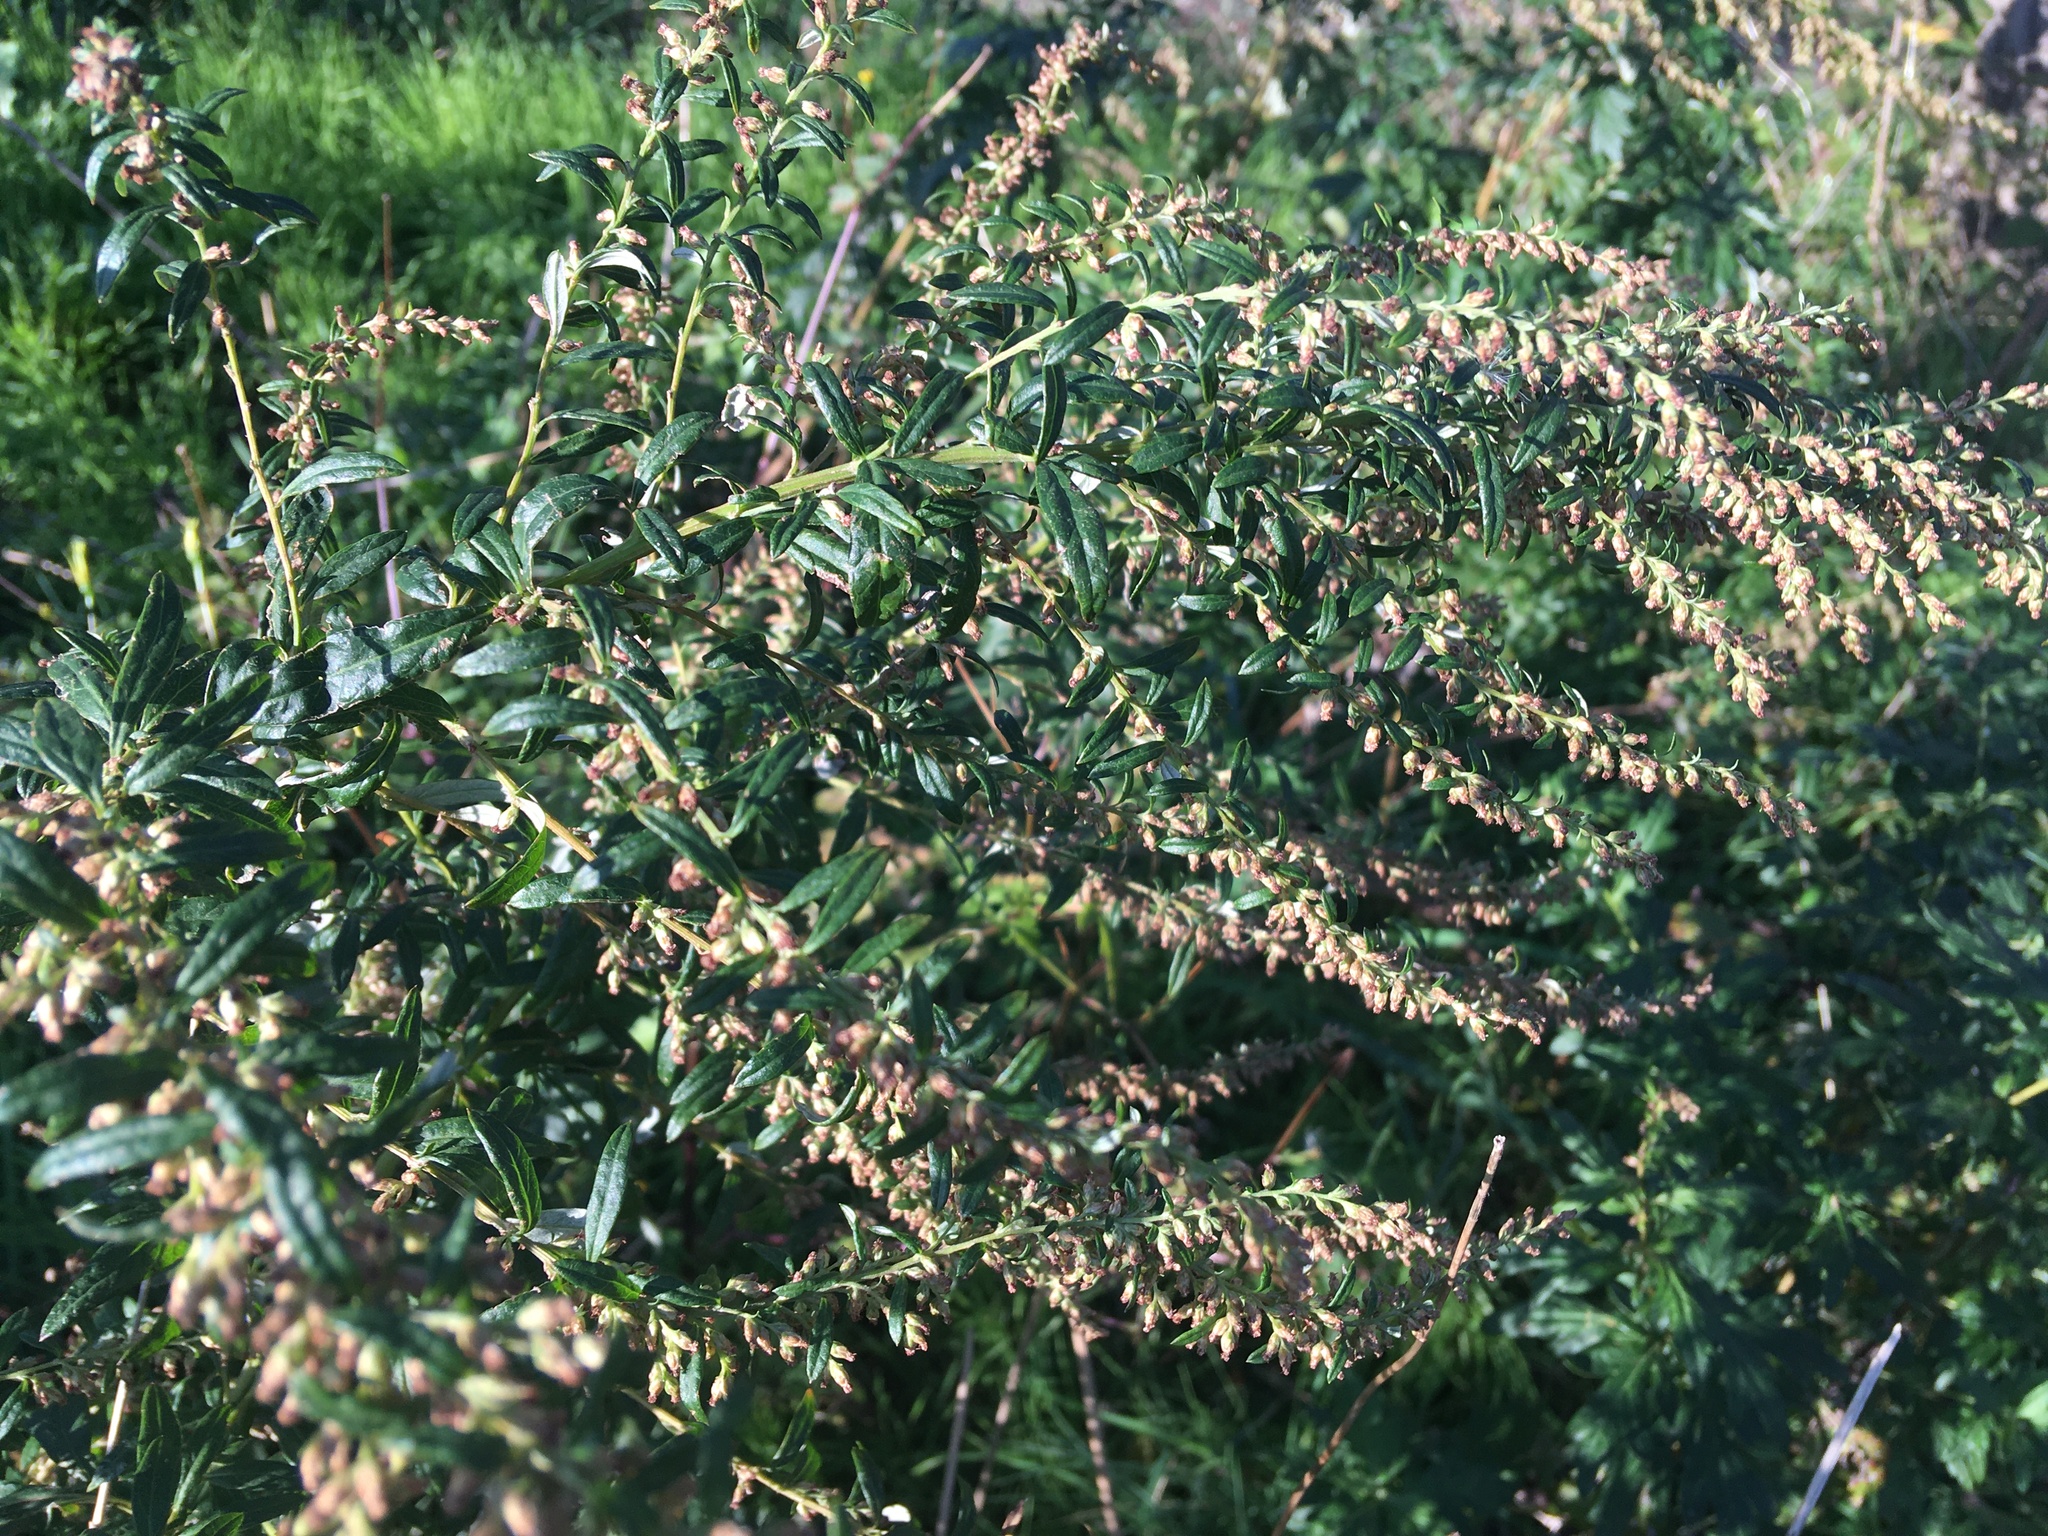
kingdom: Plantae
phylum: Tracheophyta
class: Magnoliopsida
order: Asterales
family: Asteraceae
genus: Artemisia
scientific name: Artemisia vulgaris
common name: Mugwort
